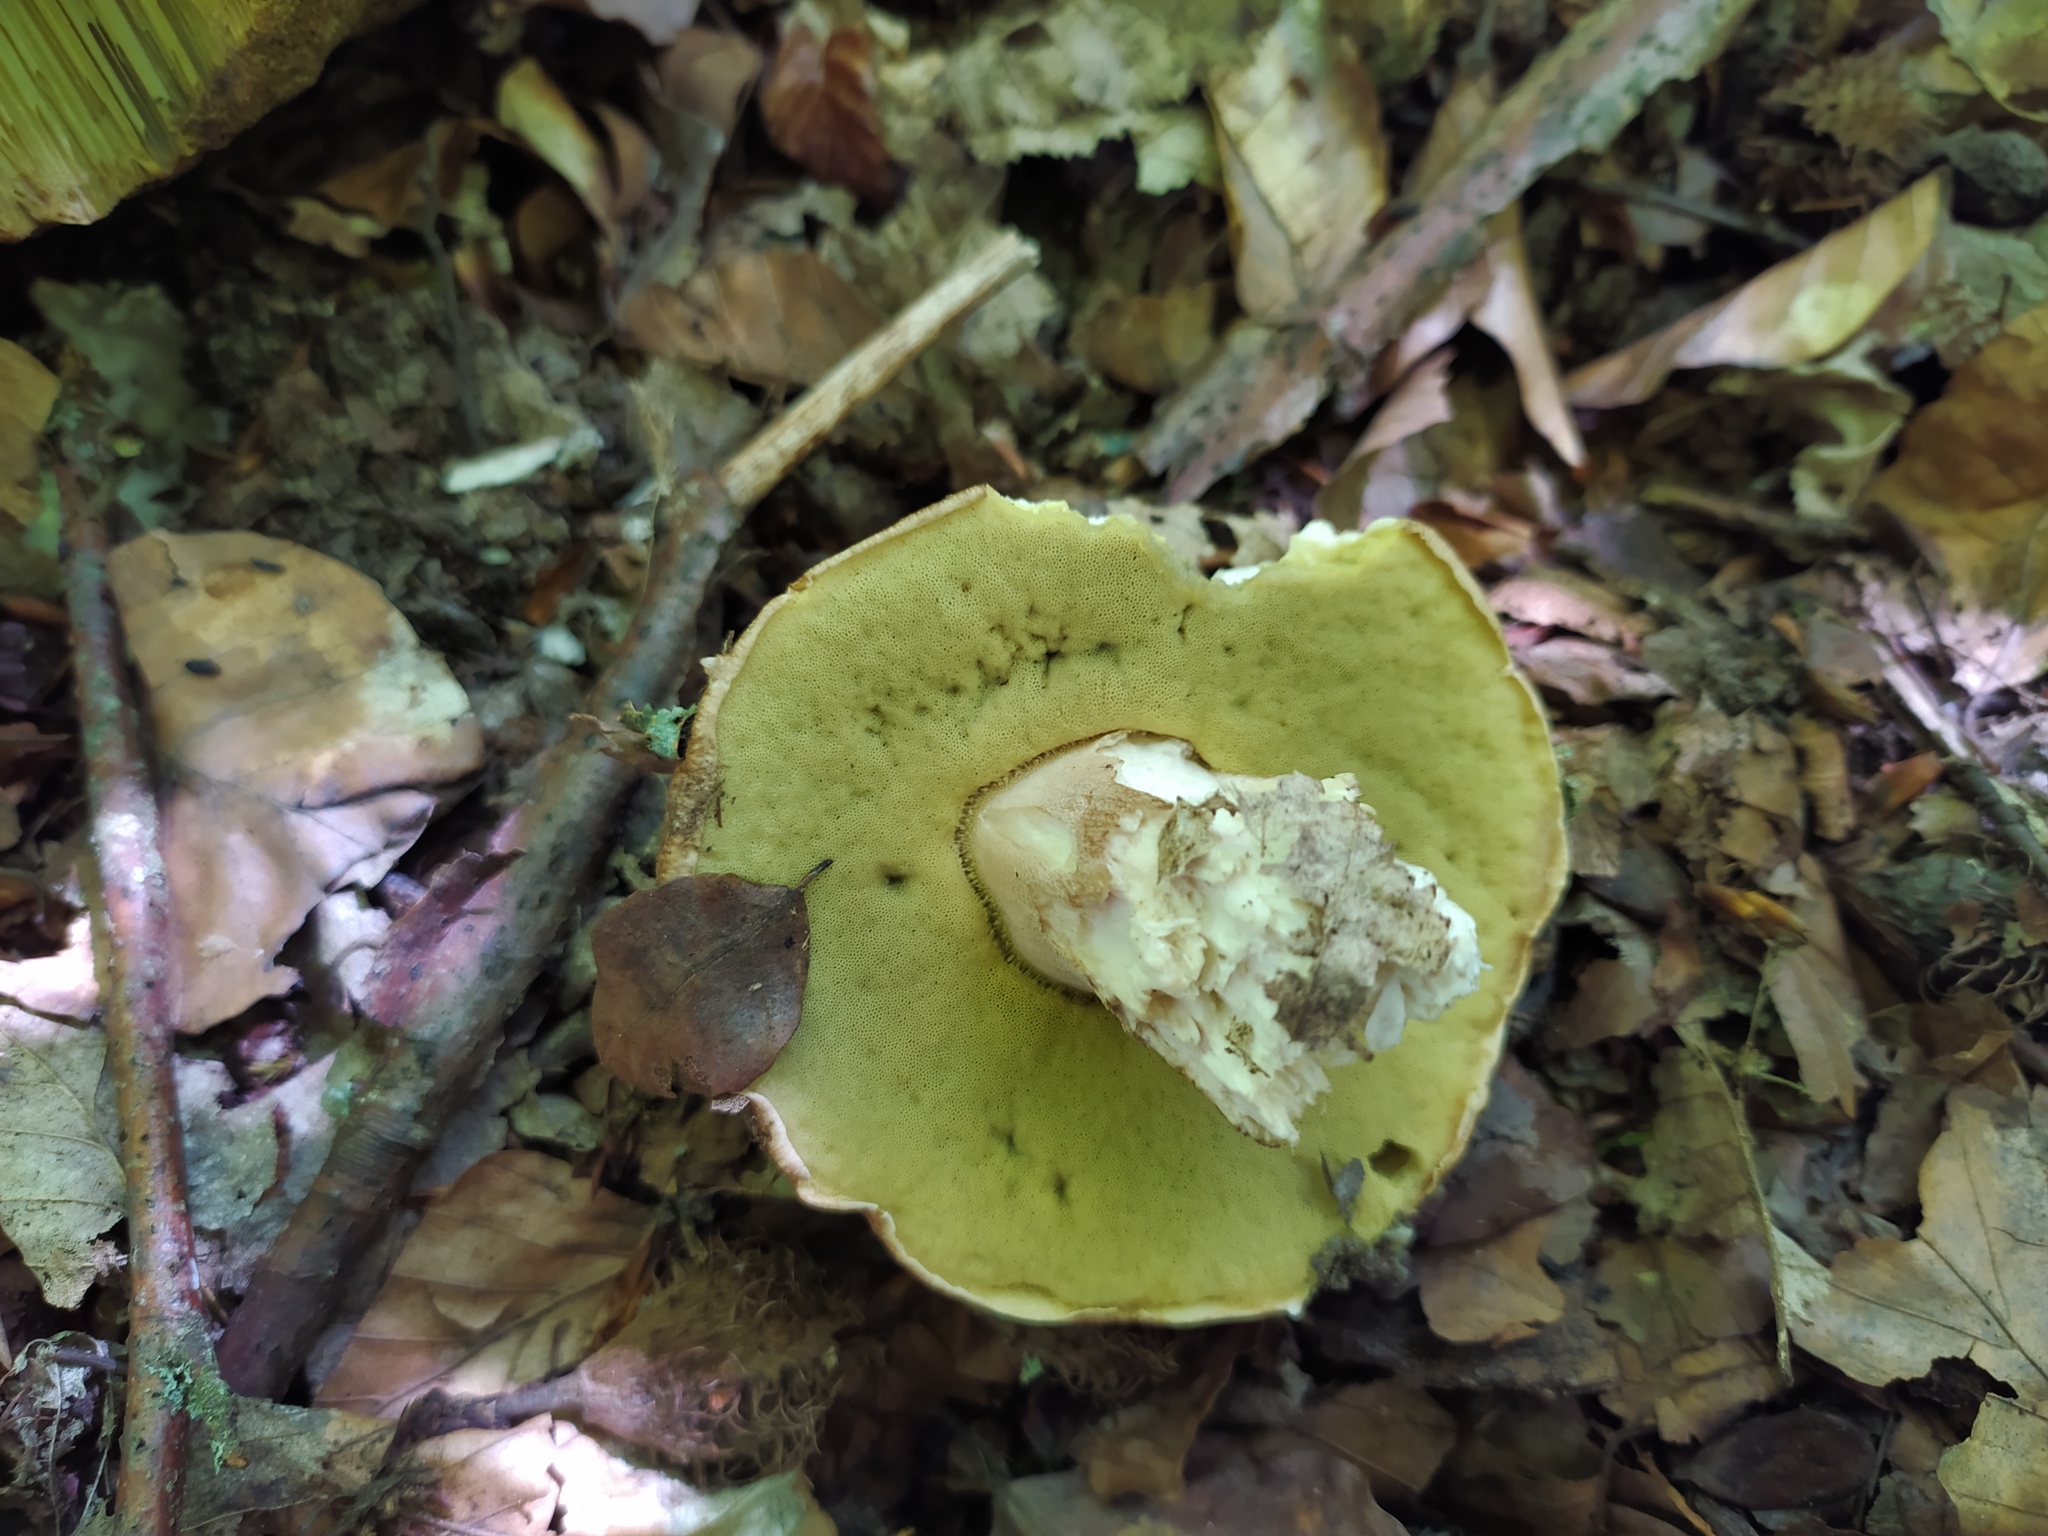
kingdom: Fungi
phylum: Basidiomycota
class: Agaricomycetes
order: Boletales
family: Boletaceae
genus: Boletus
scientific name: Boletus reticulatus
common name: Summer bolete
